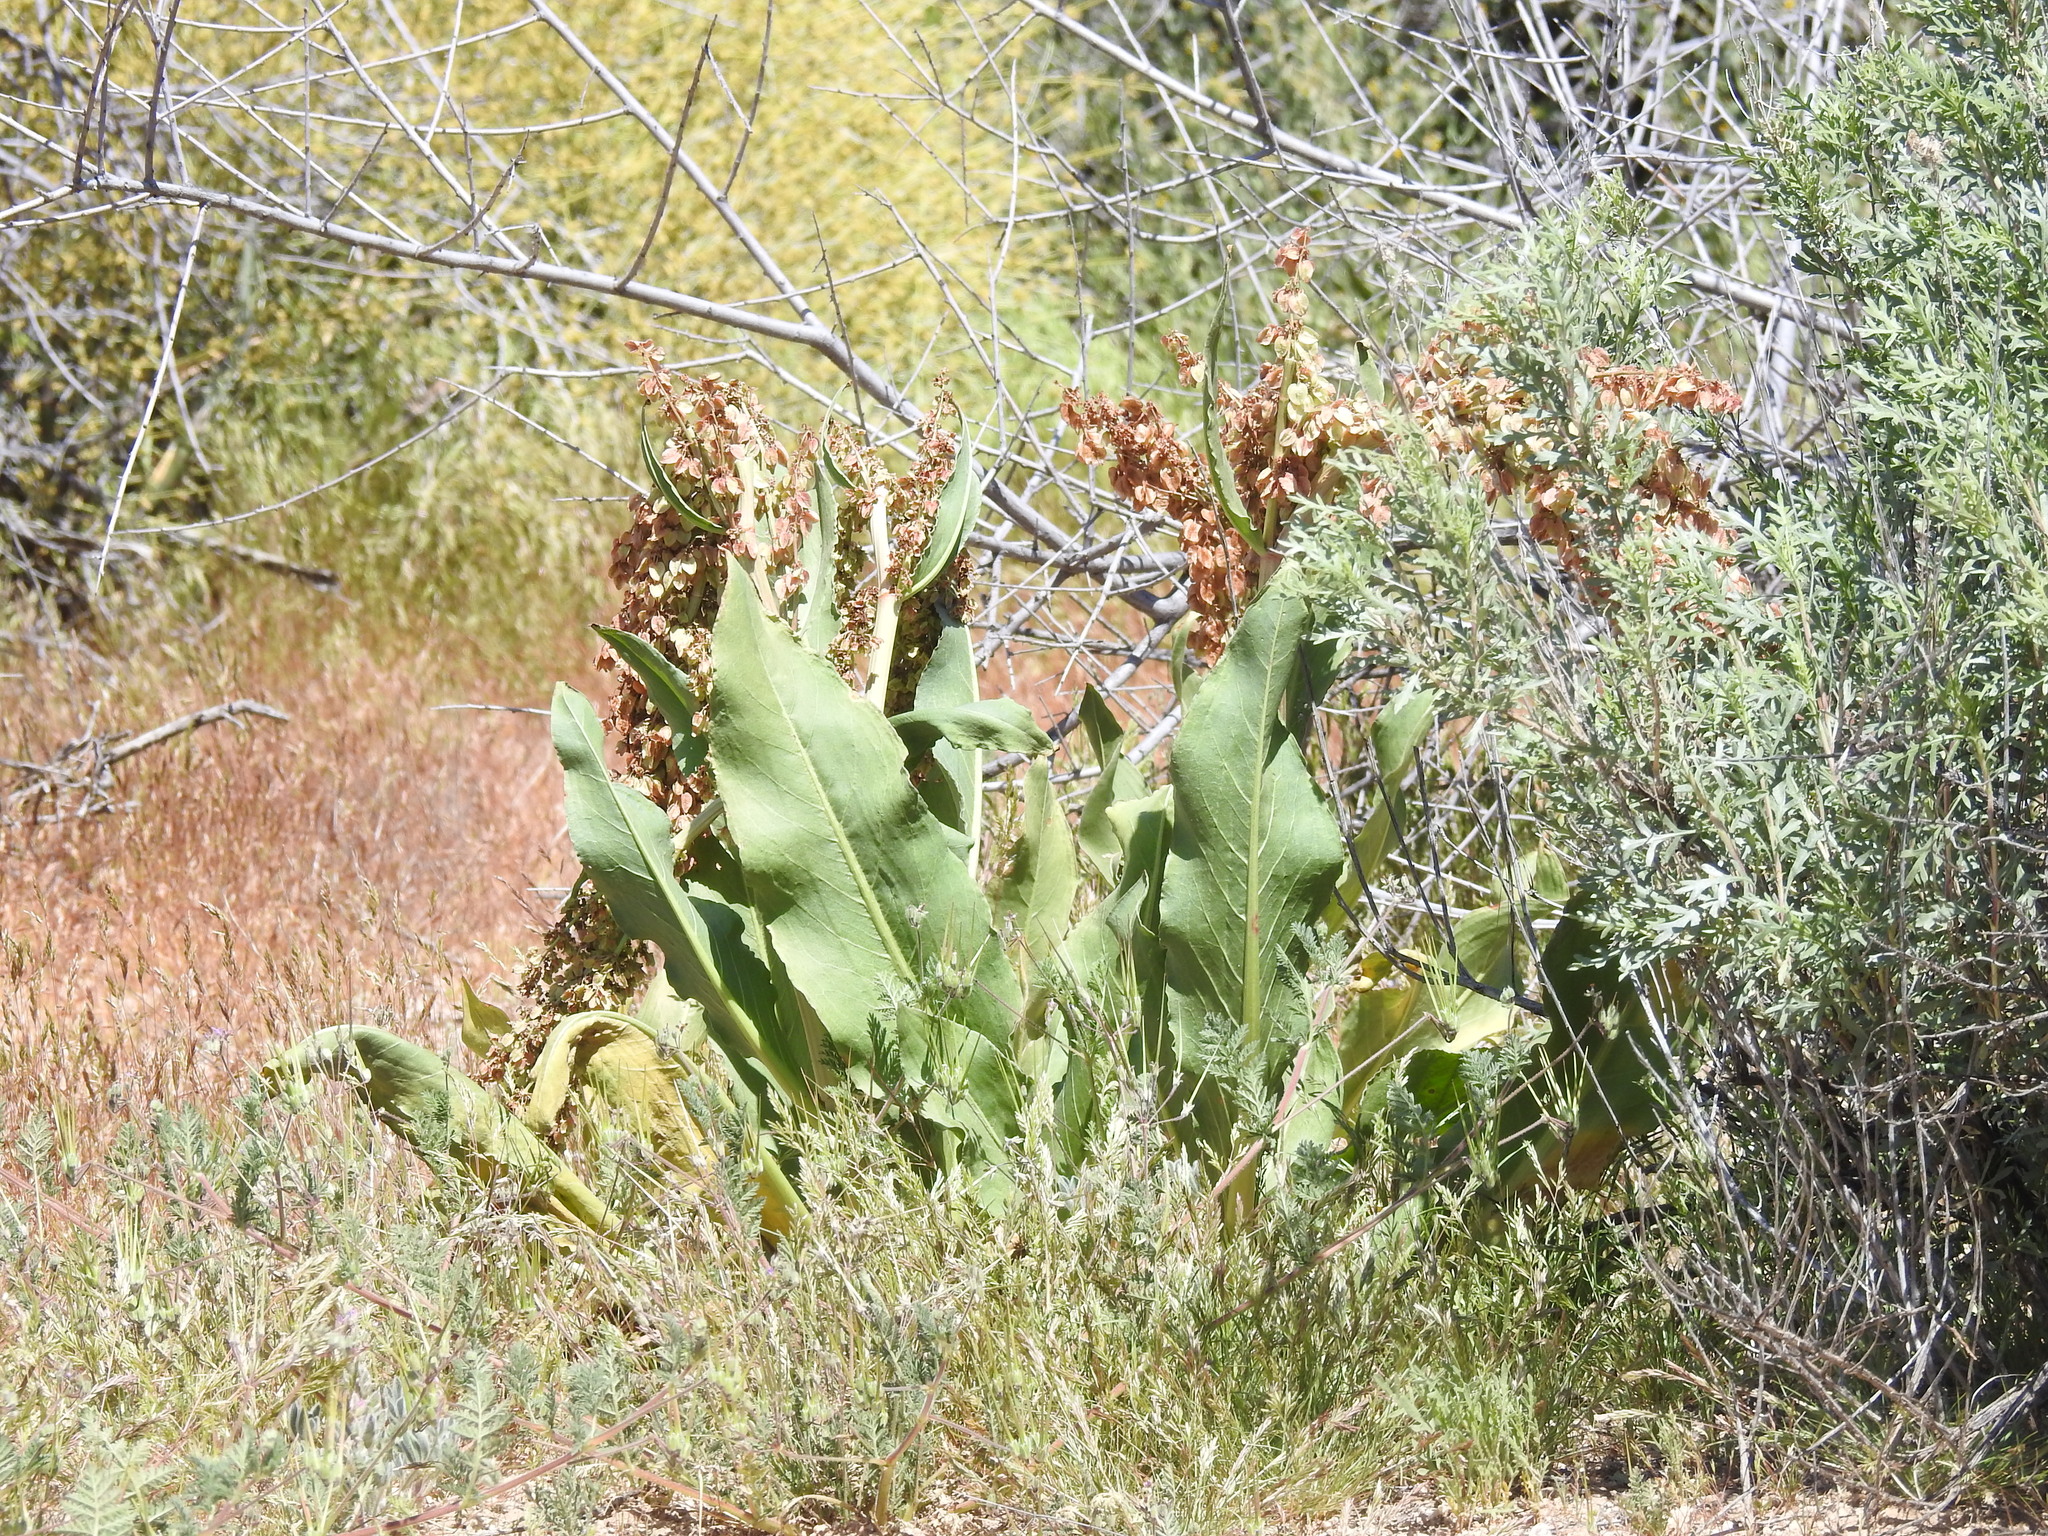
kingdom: Plantae
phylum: Tracheophyta
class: Magnoliopsida
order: Caryophyllales
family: Polygonaceae
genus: Rumex
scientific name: Rumex hymenosepalus
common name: Ganagra
